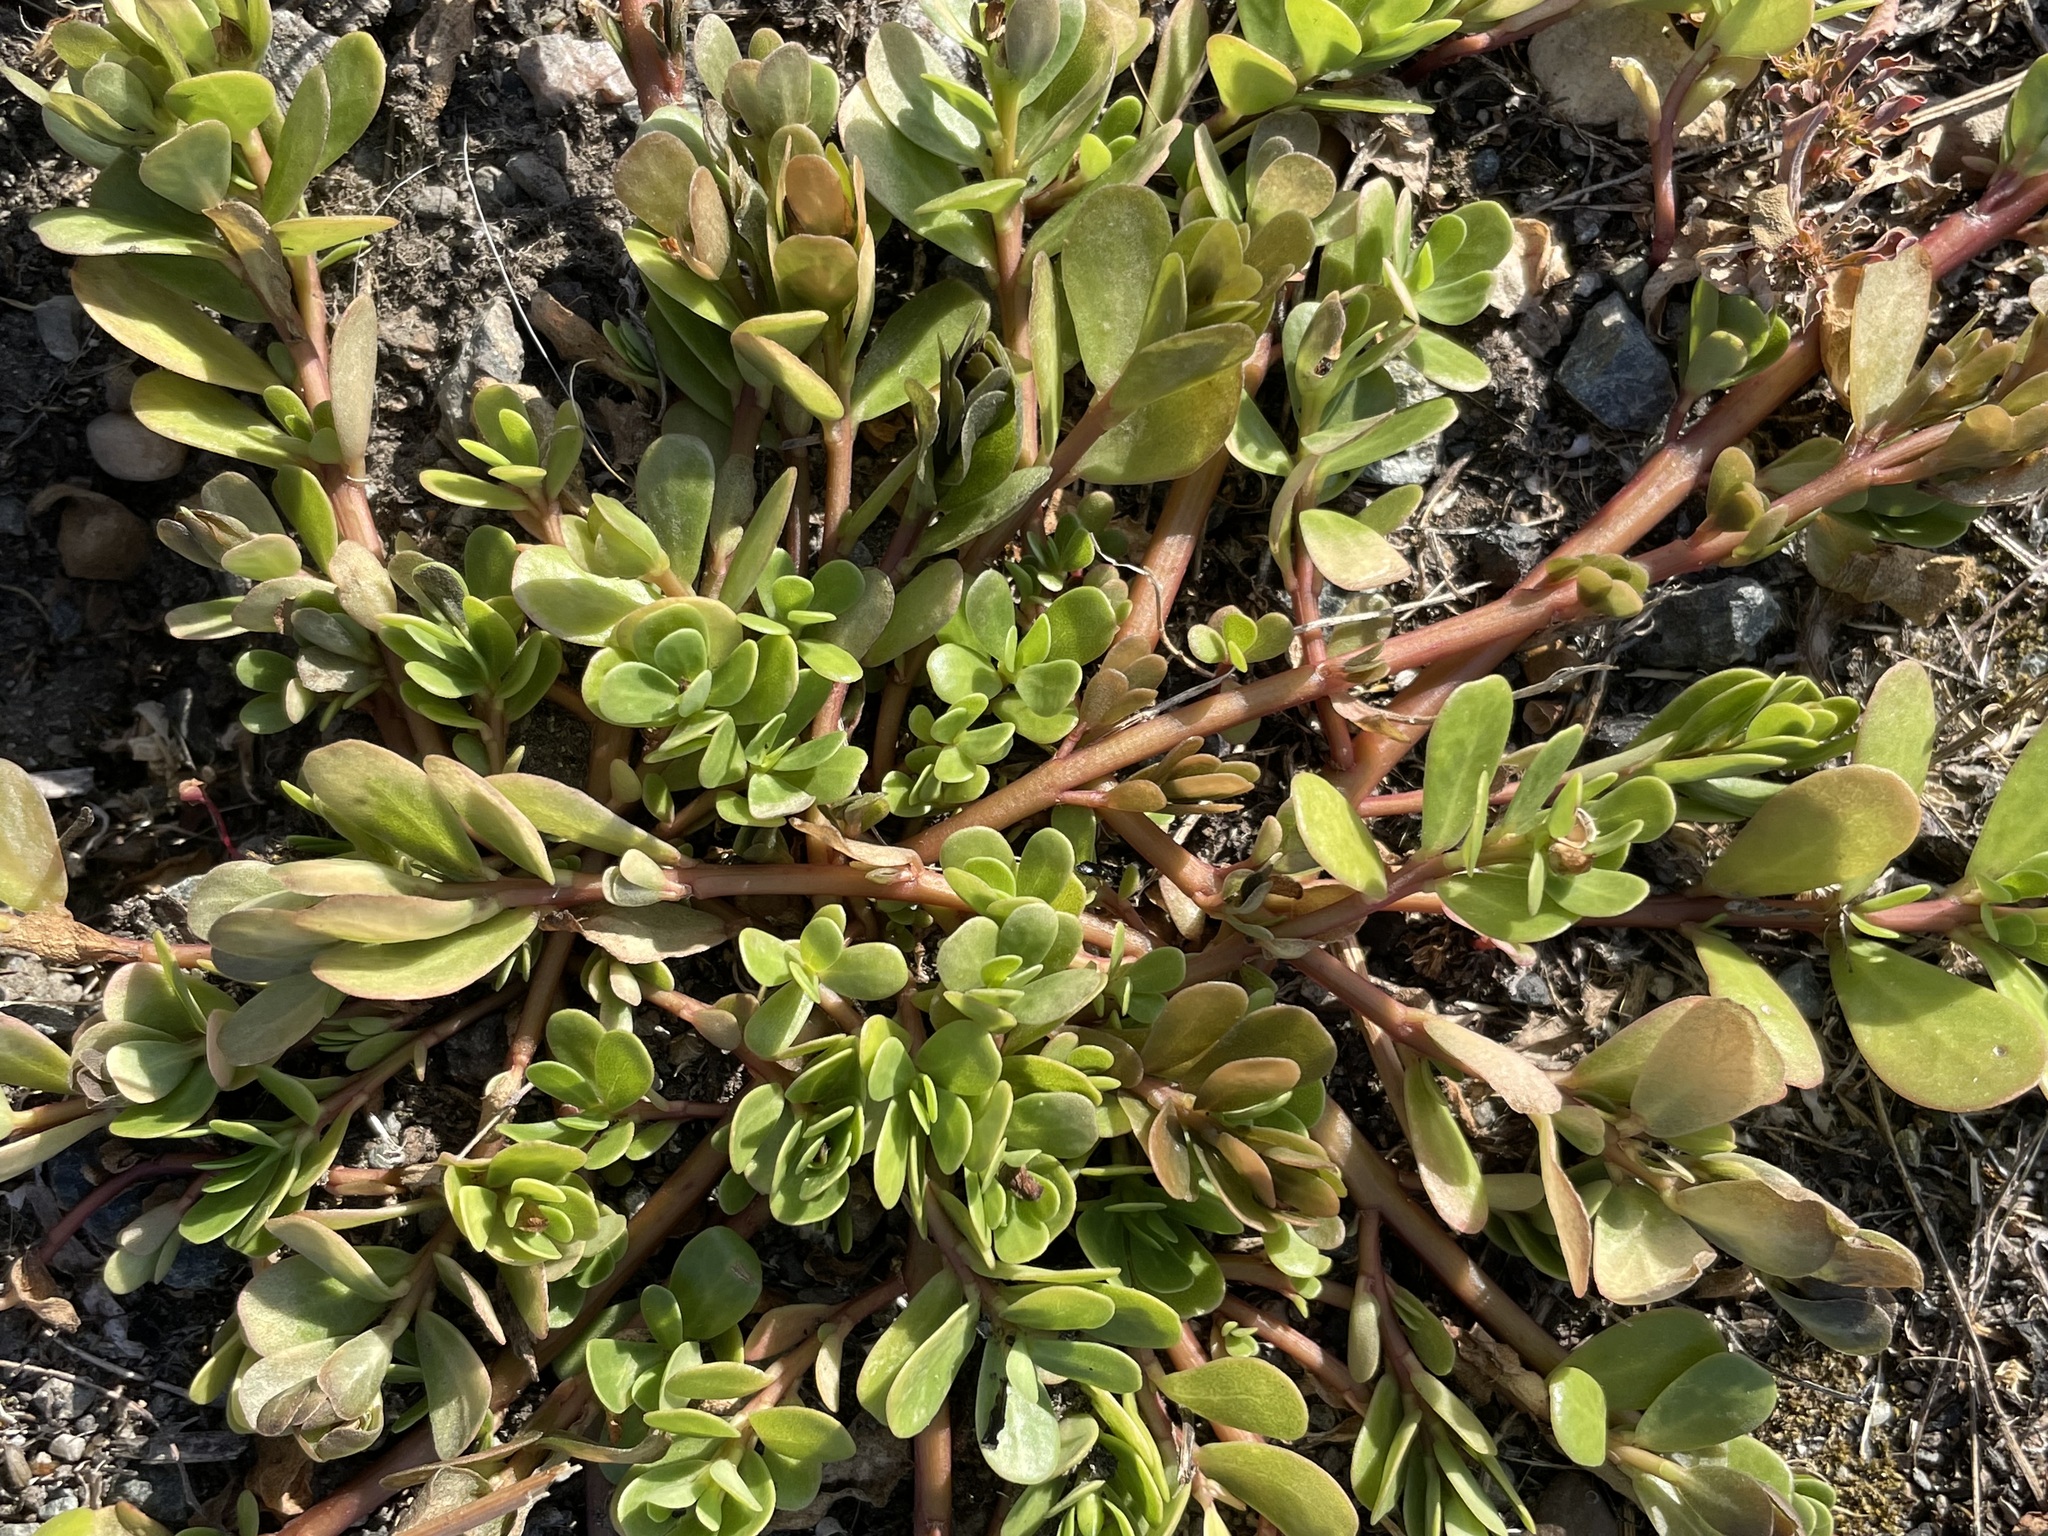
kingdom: Plantae
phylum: Tracheophyta
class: Magnoliopsida
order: Caryophyllales
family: Portulacaceae
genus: Portulaca
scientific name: Portulaca oleracea
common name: Common purslane
